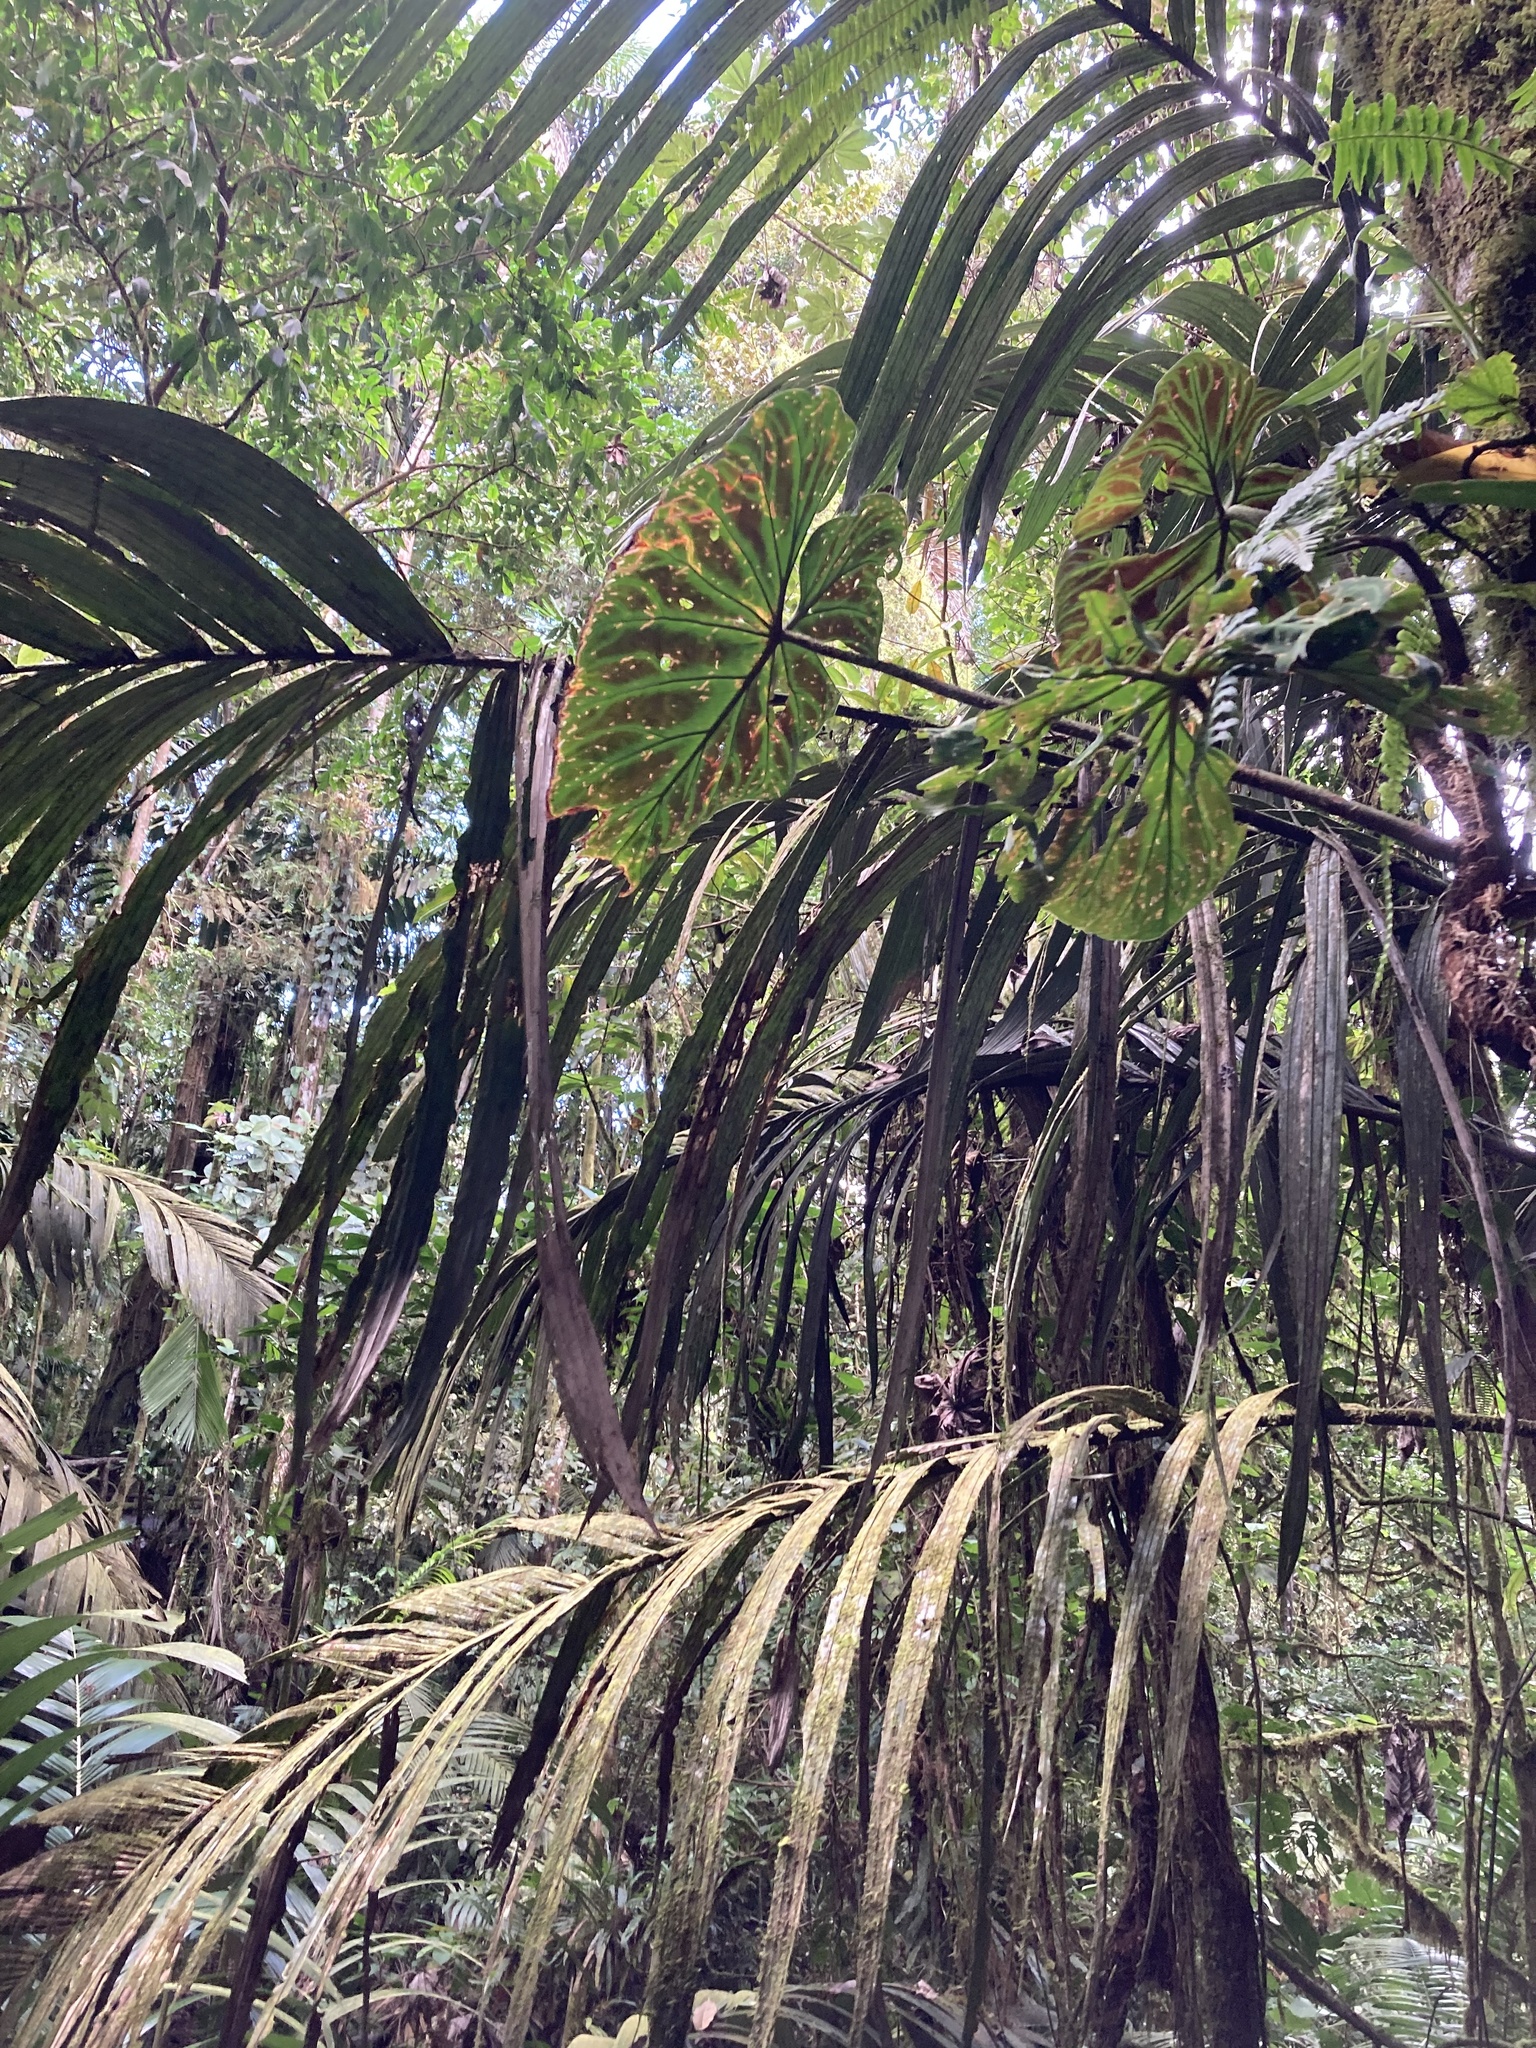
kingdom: Plantae
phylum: Tracheophyta
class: Liliopsida
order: Alismatales
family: Araceae
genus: Philodendron
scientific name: Philodendron verrucosum
